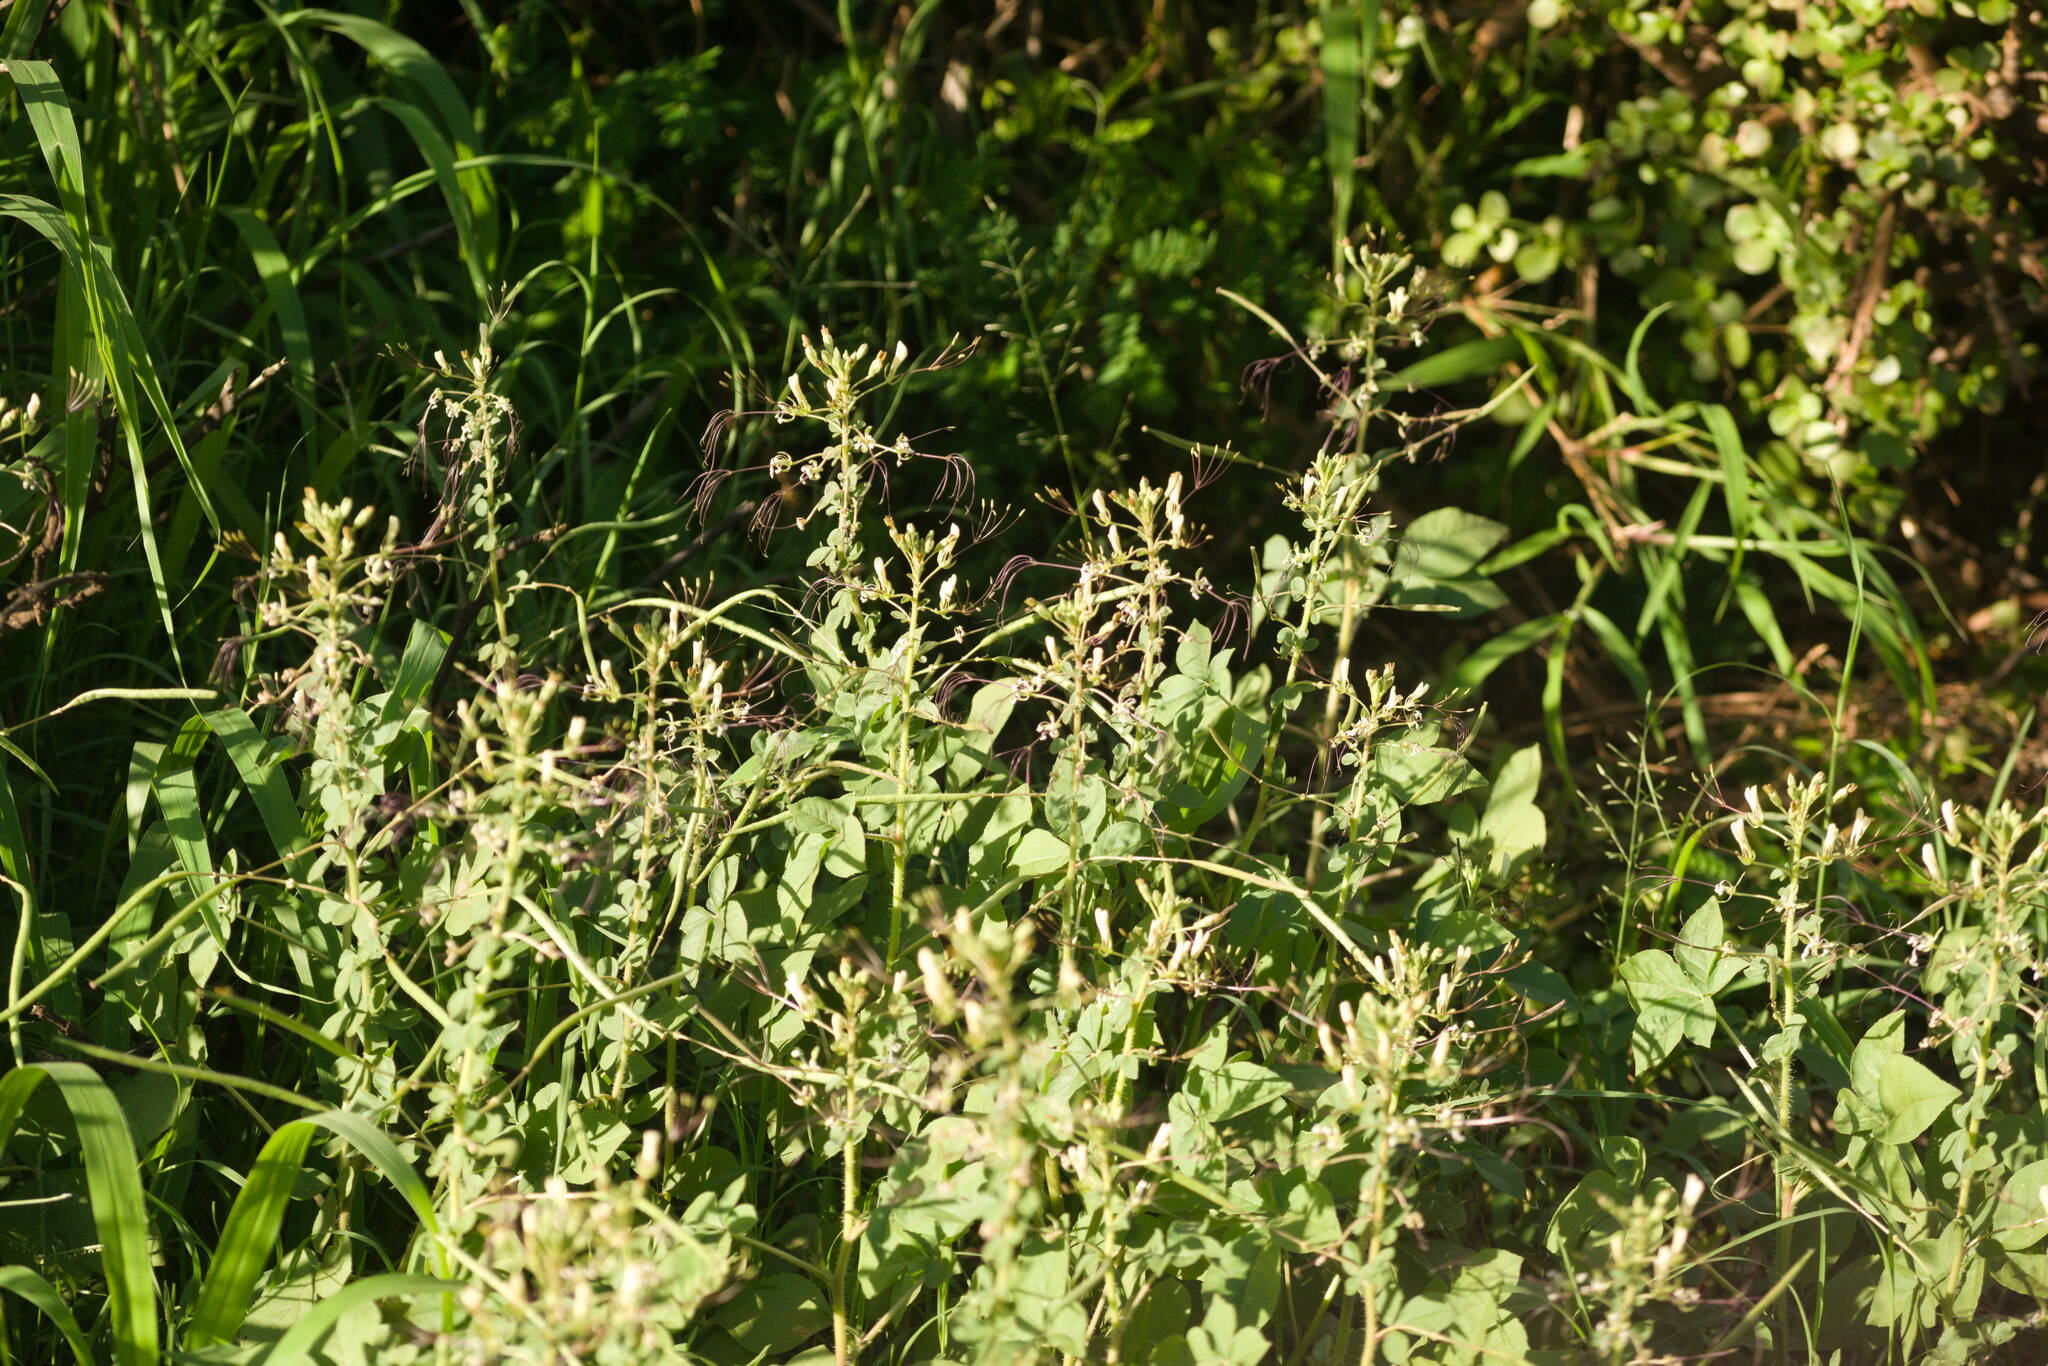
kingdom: Plantae
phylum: Tracheophyta
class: Magnoliopsida
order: Brassicales
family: Cleomaceae
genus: Gynandropsis
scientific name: Gynandropsis gynandra
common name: Spiderwisp
